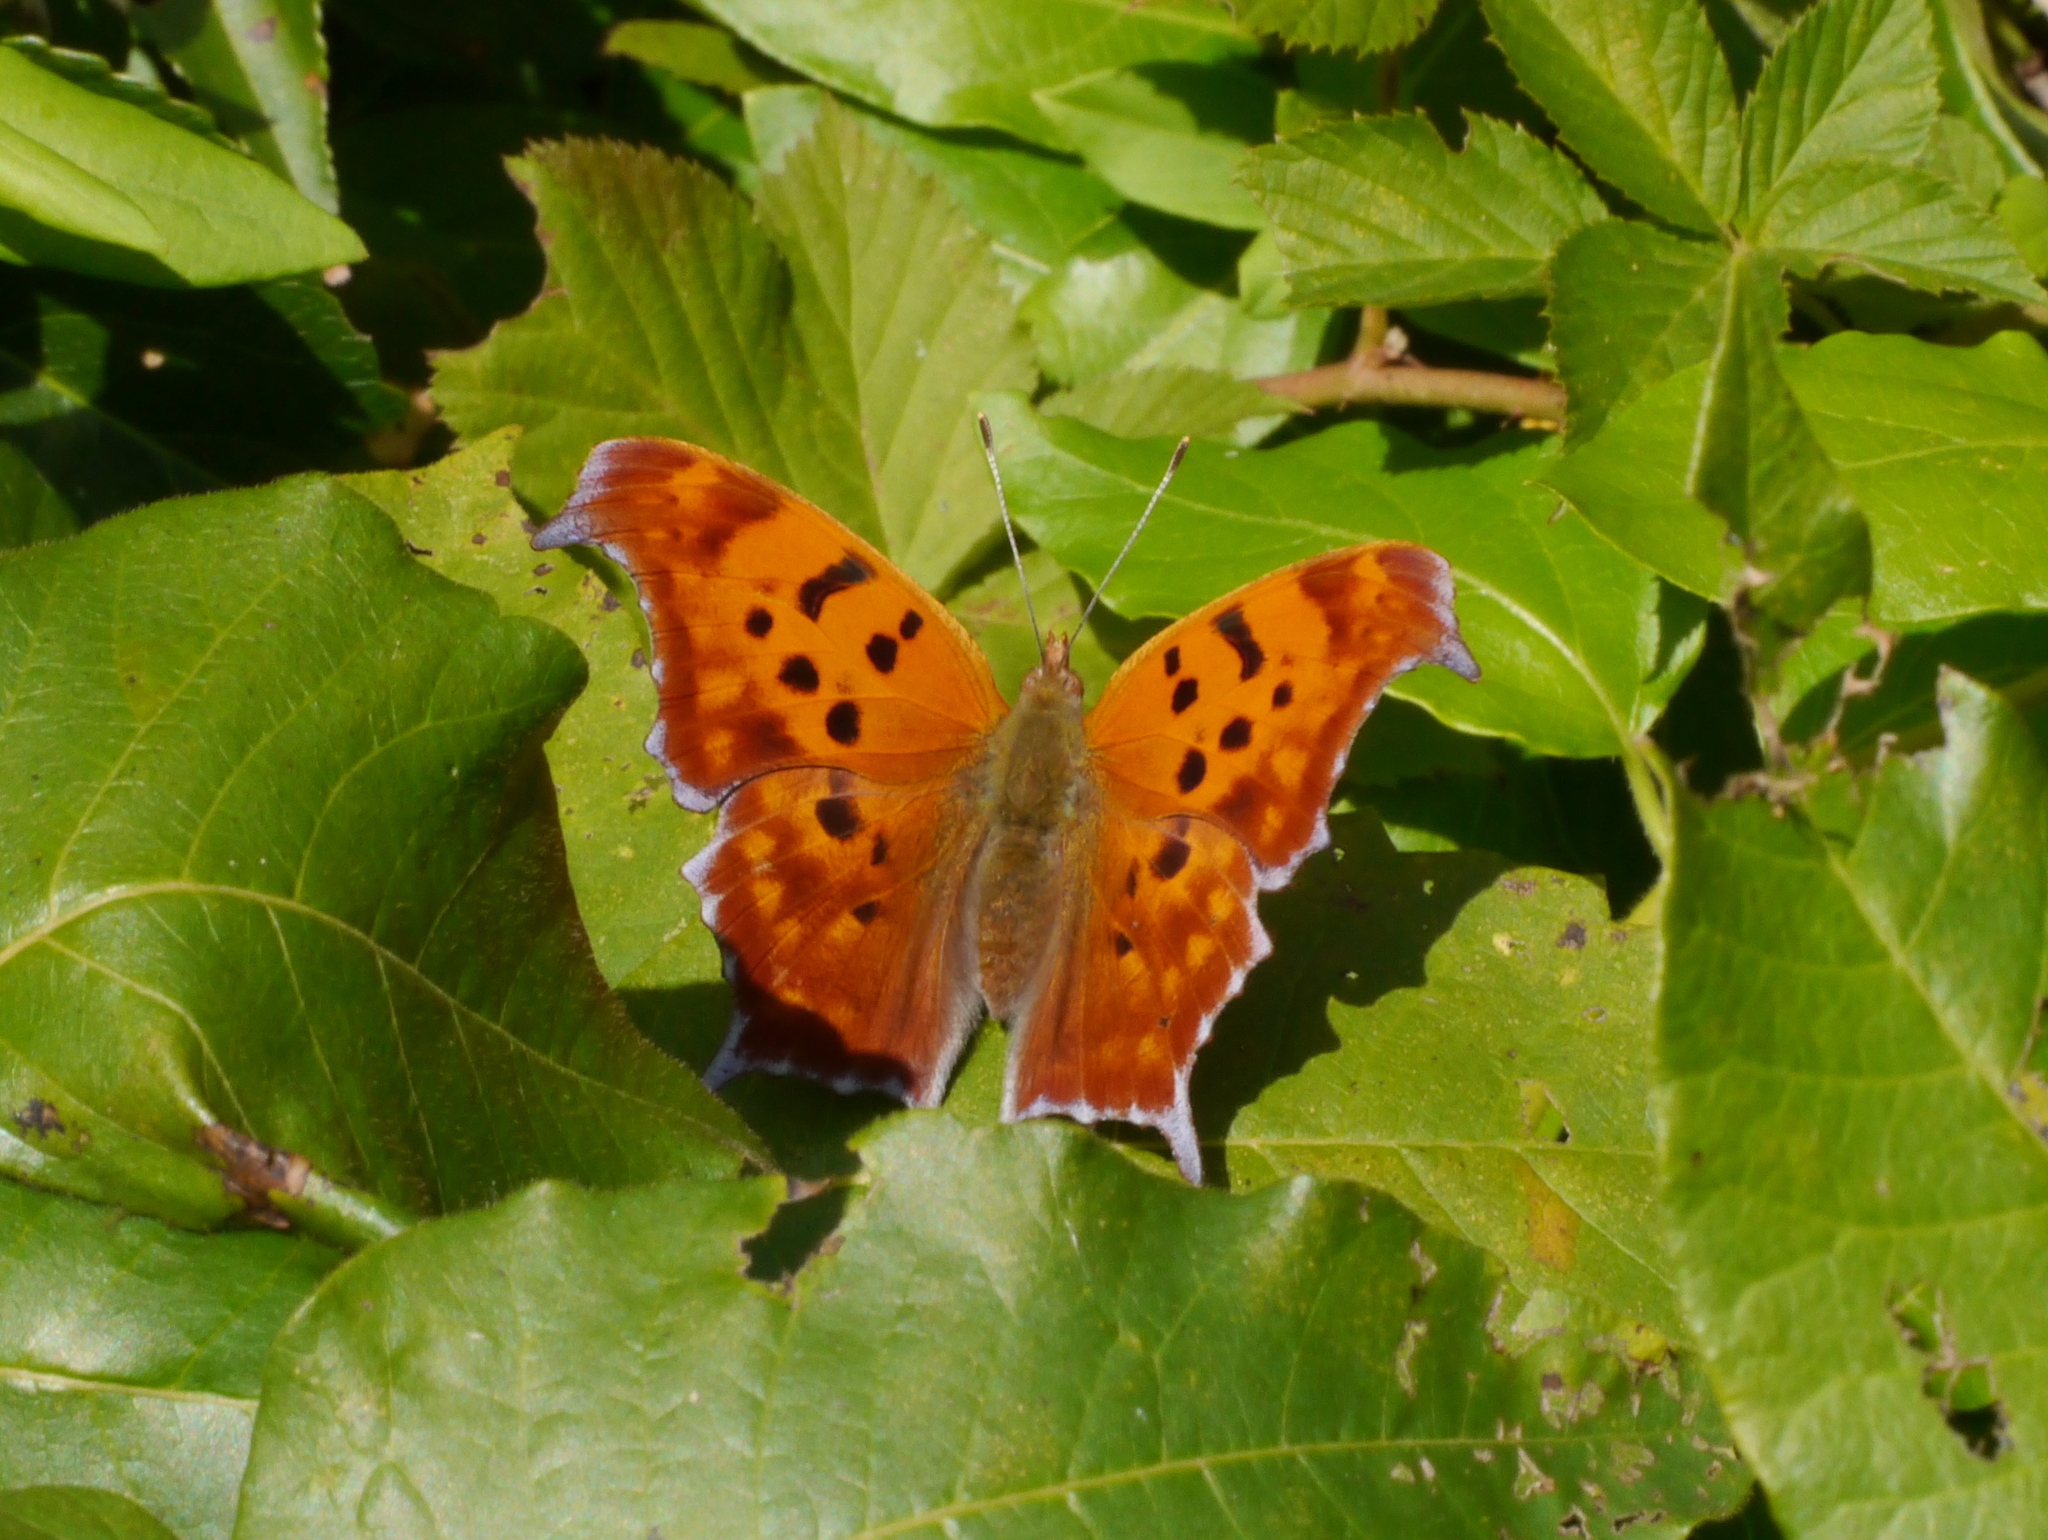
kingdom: Animalia
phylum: Arthropoda
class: Insecta
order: Lepidoptera
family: Nymphalidae
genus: Polygonia
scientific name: Polygonia interrogationis
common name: Question mark
